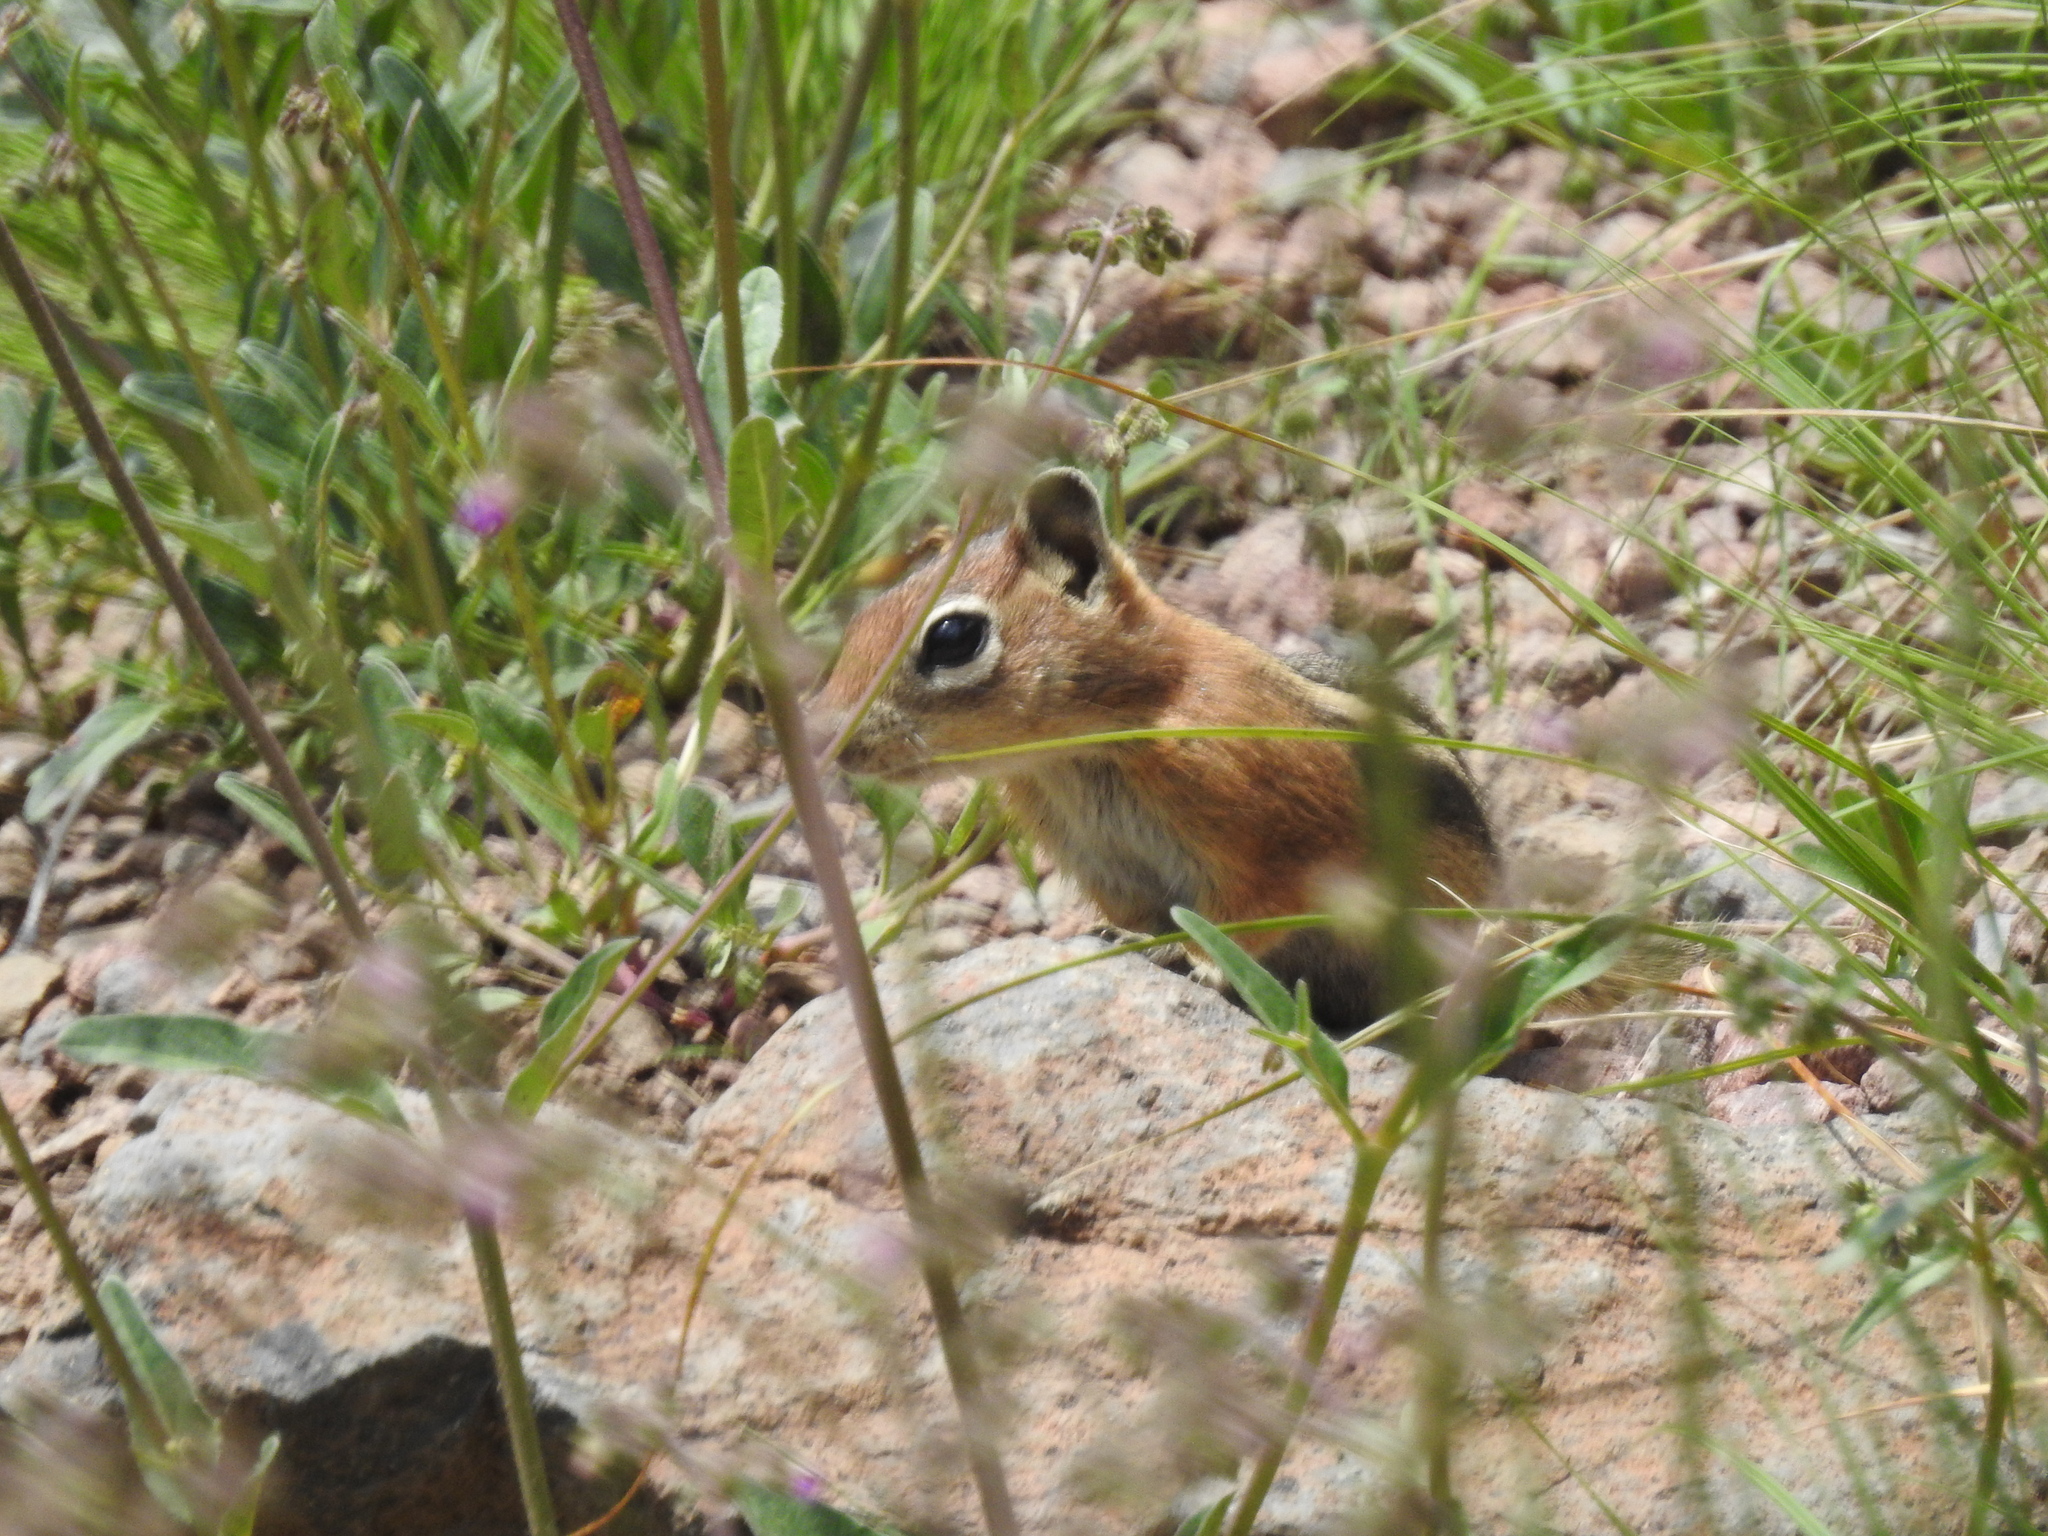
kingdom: Animalia
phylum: Chordata
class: Mammalia
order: Rodentia
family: Sciuridae
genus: Callospermophilus
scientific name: Callospermophilus lateralis
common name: Golden-mantled ground squirrel
